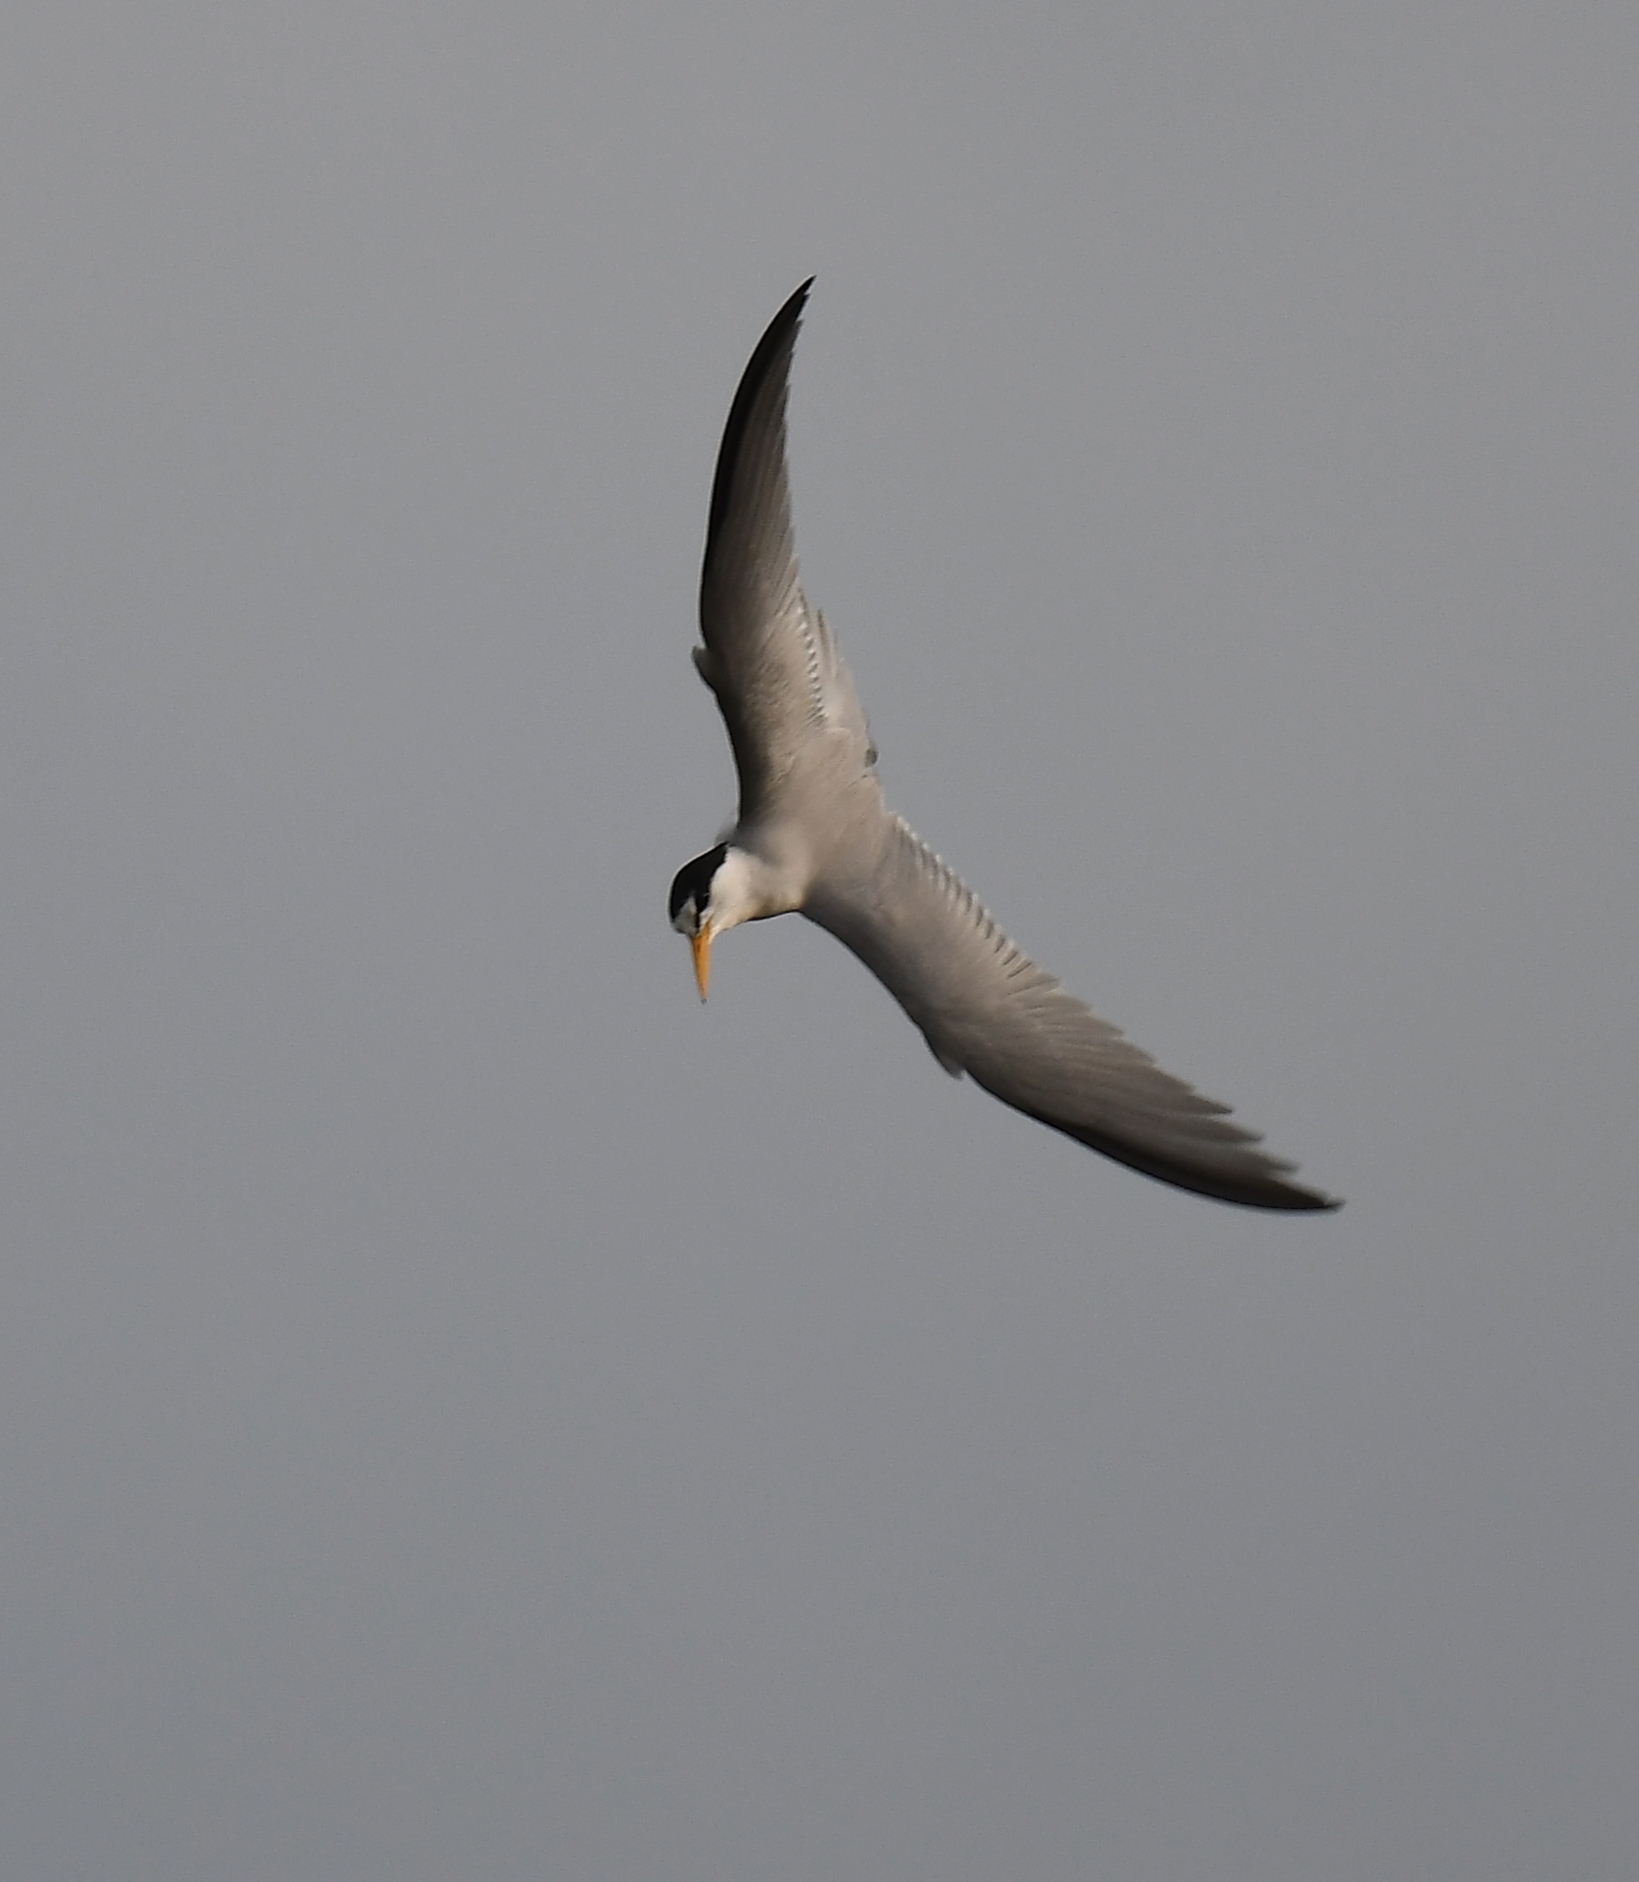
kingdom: Animalia
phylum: Chordata
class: Aves
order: Charadriiformes
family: Laridae
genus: Sternula
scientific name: Sternula antillarum
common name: Least tern
